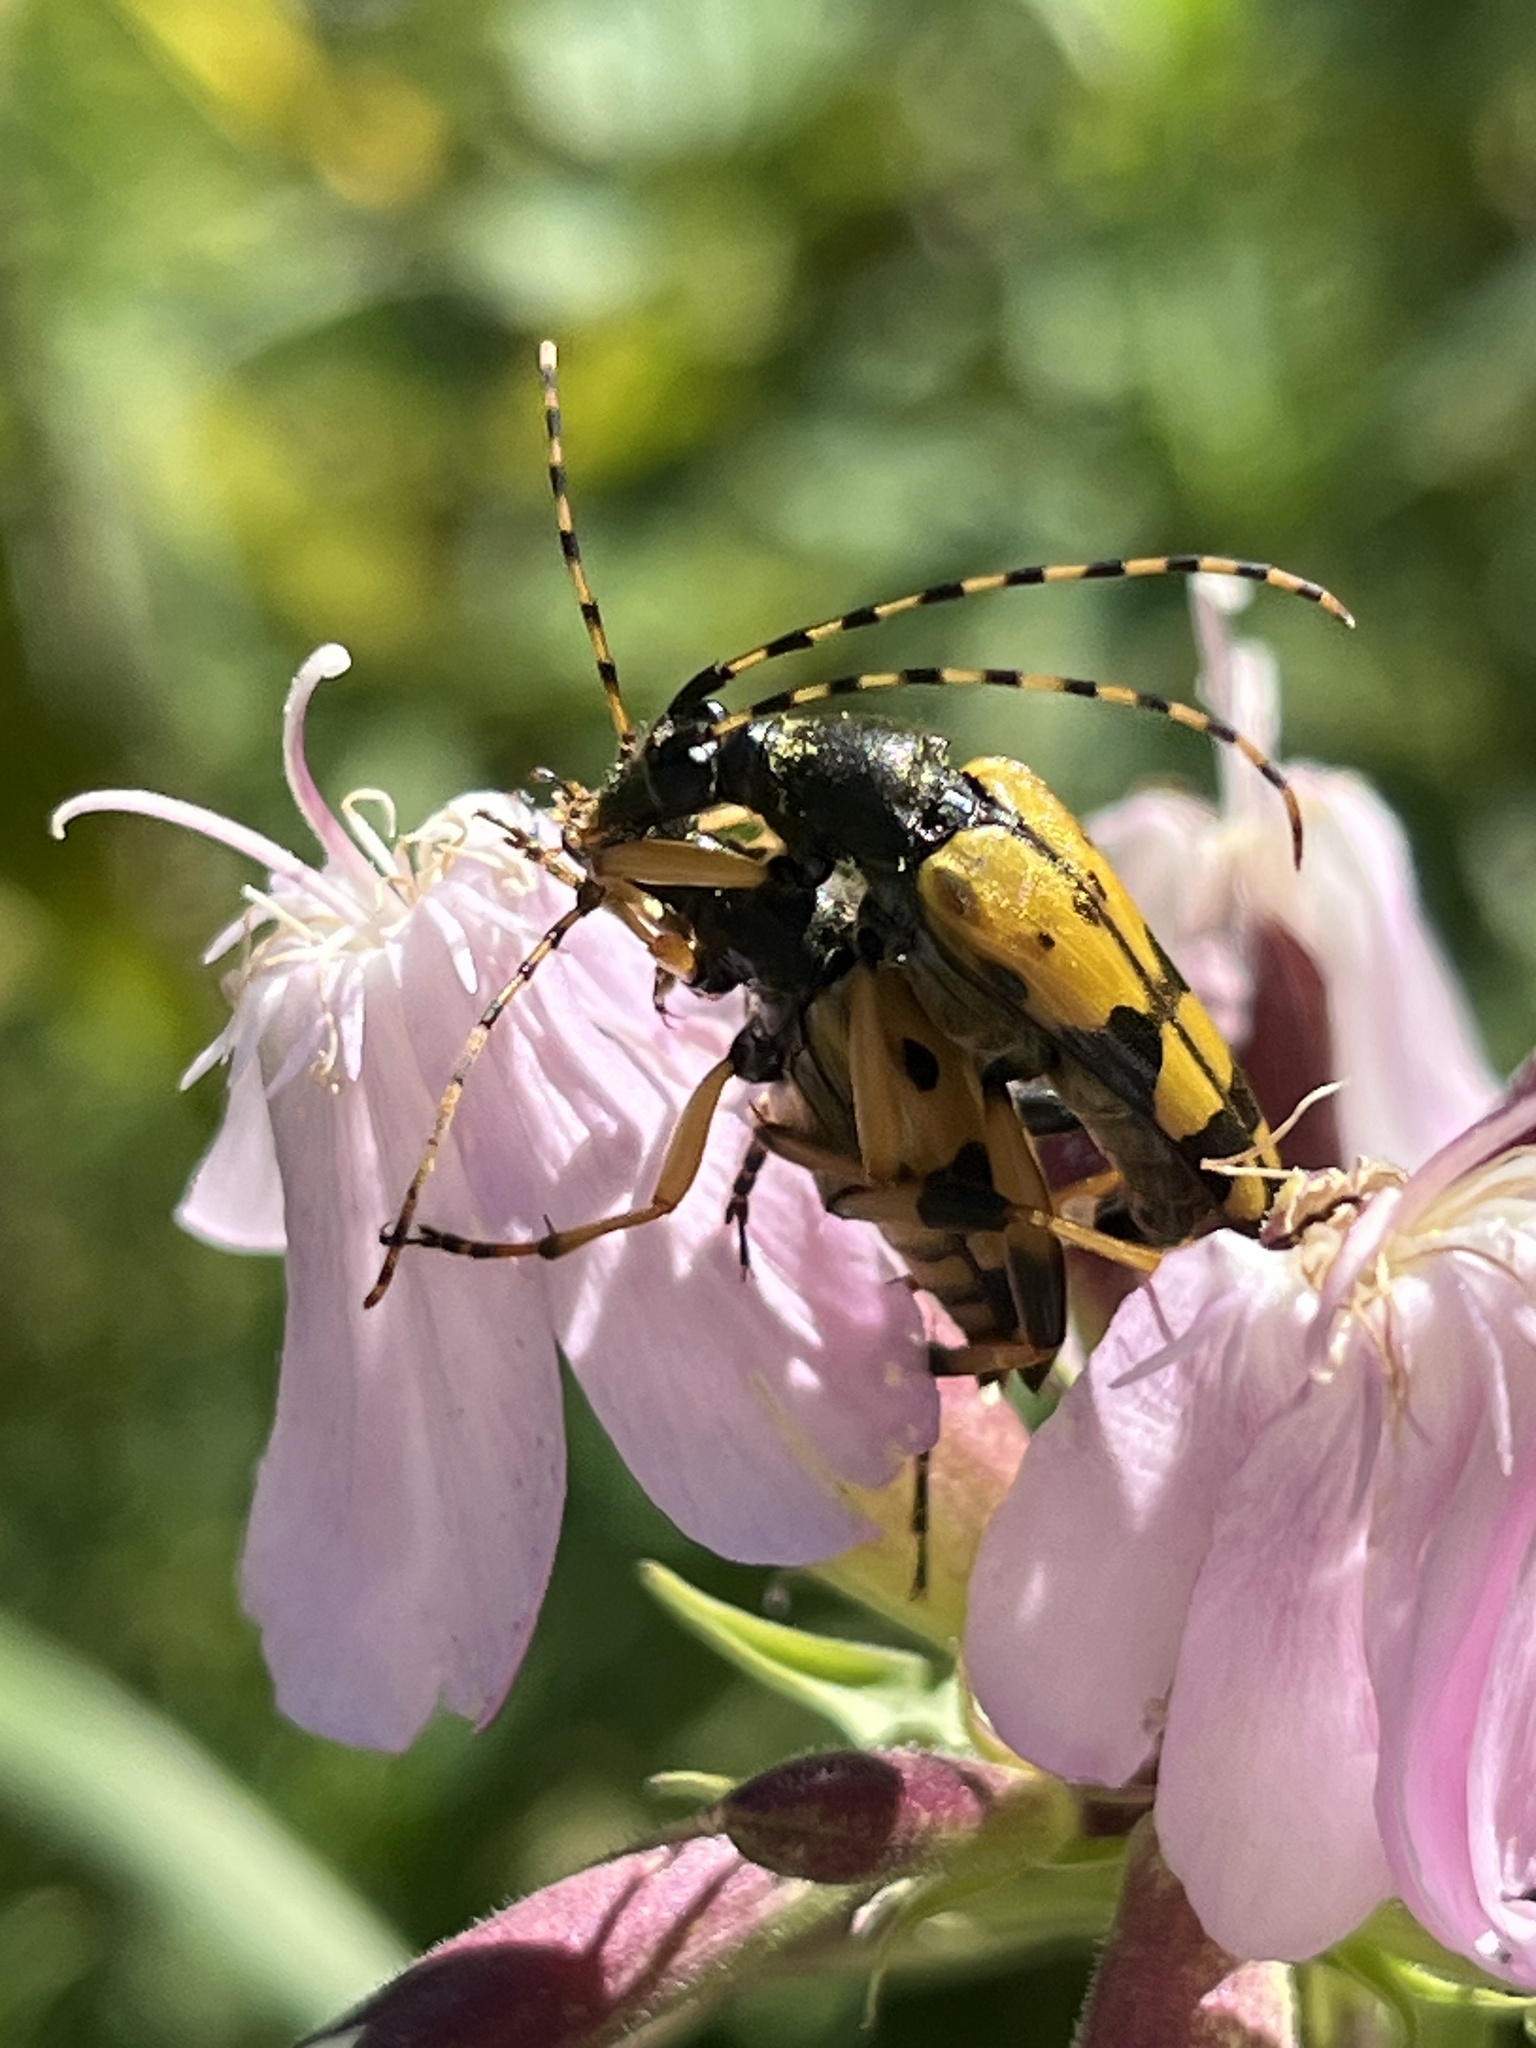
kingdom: Animalia
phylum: Arthropoda
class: Insecta
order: Coleoptera
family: Cerambycidae
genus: Rutpela
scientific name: Rutpela maculata
